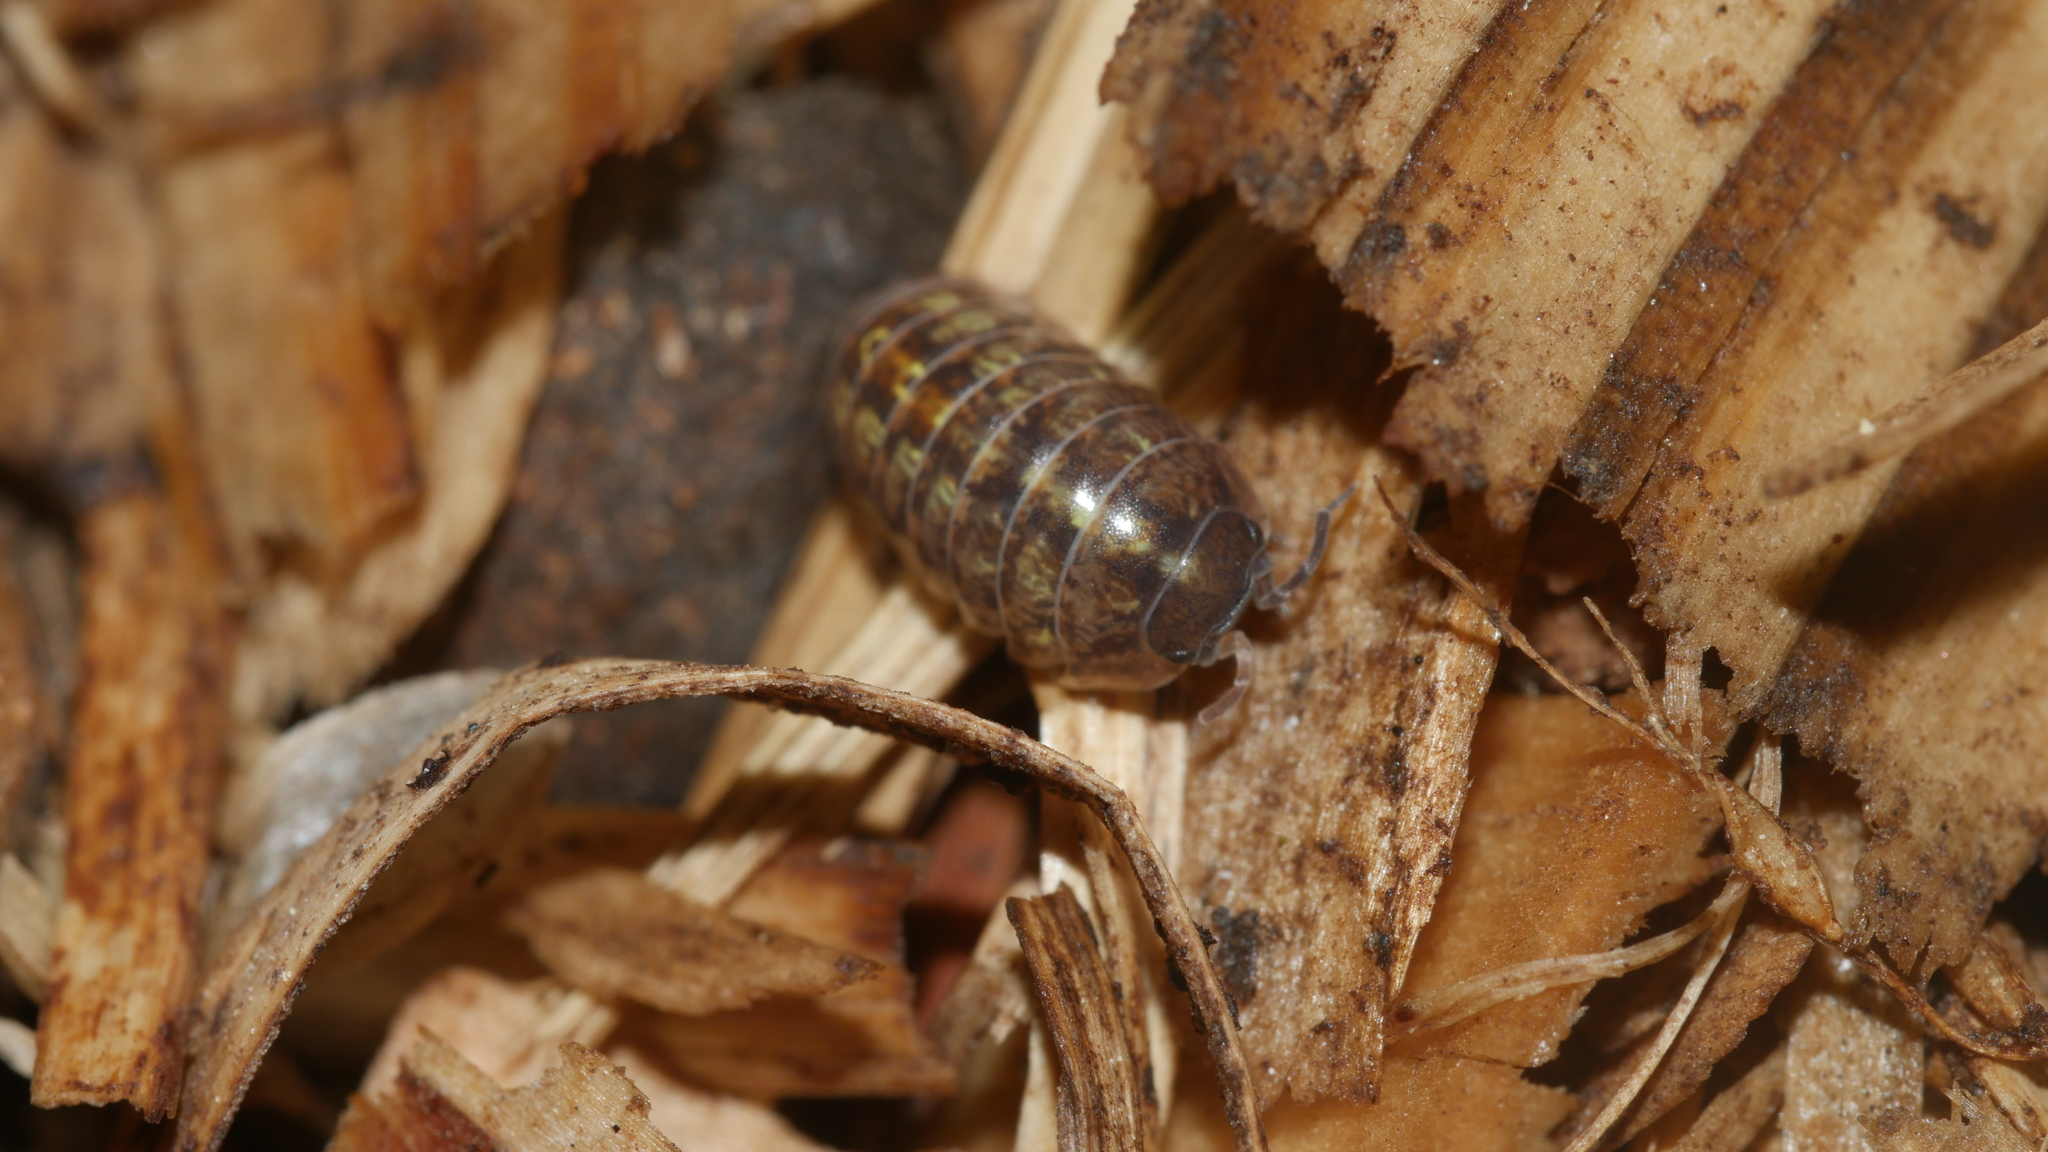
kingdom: Animalia
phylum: Arthropoda
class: Malacostraca
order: Isopoda
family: Armadillidiidae
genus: Armadillidium
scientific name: Armadillidium vulgare
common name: Common pill woodlouse
